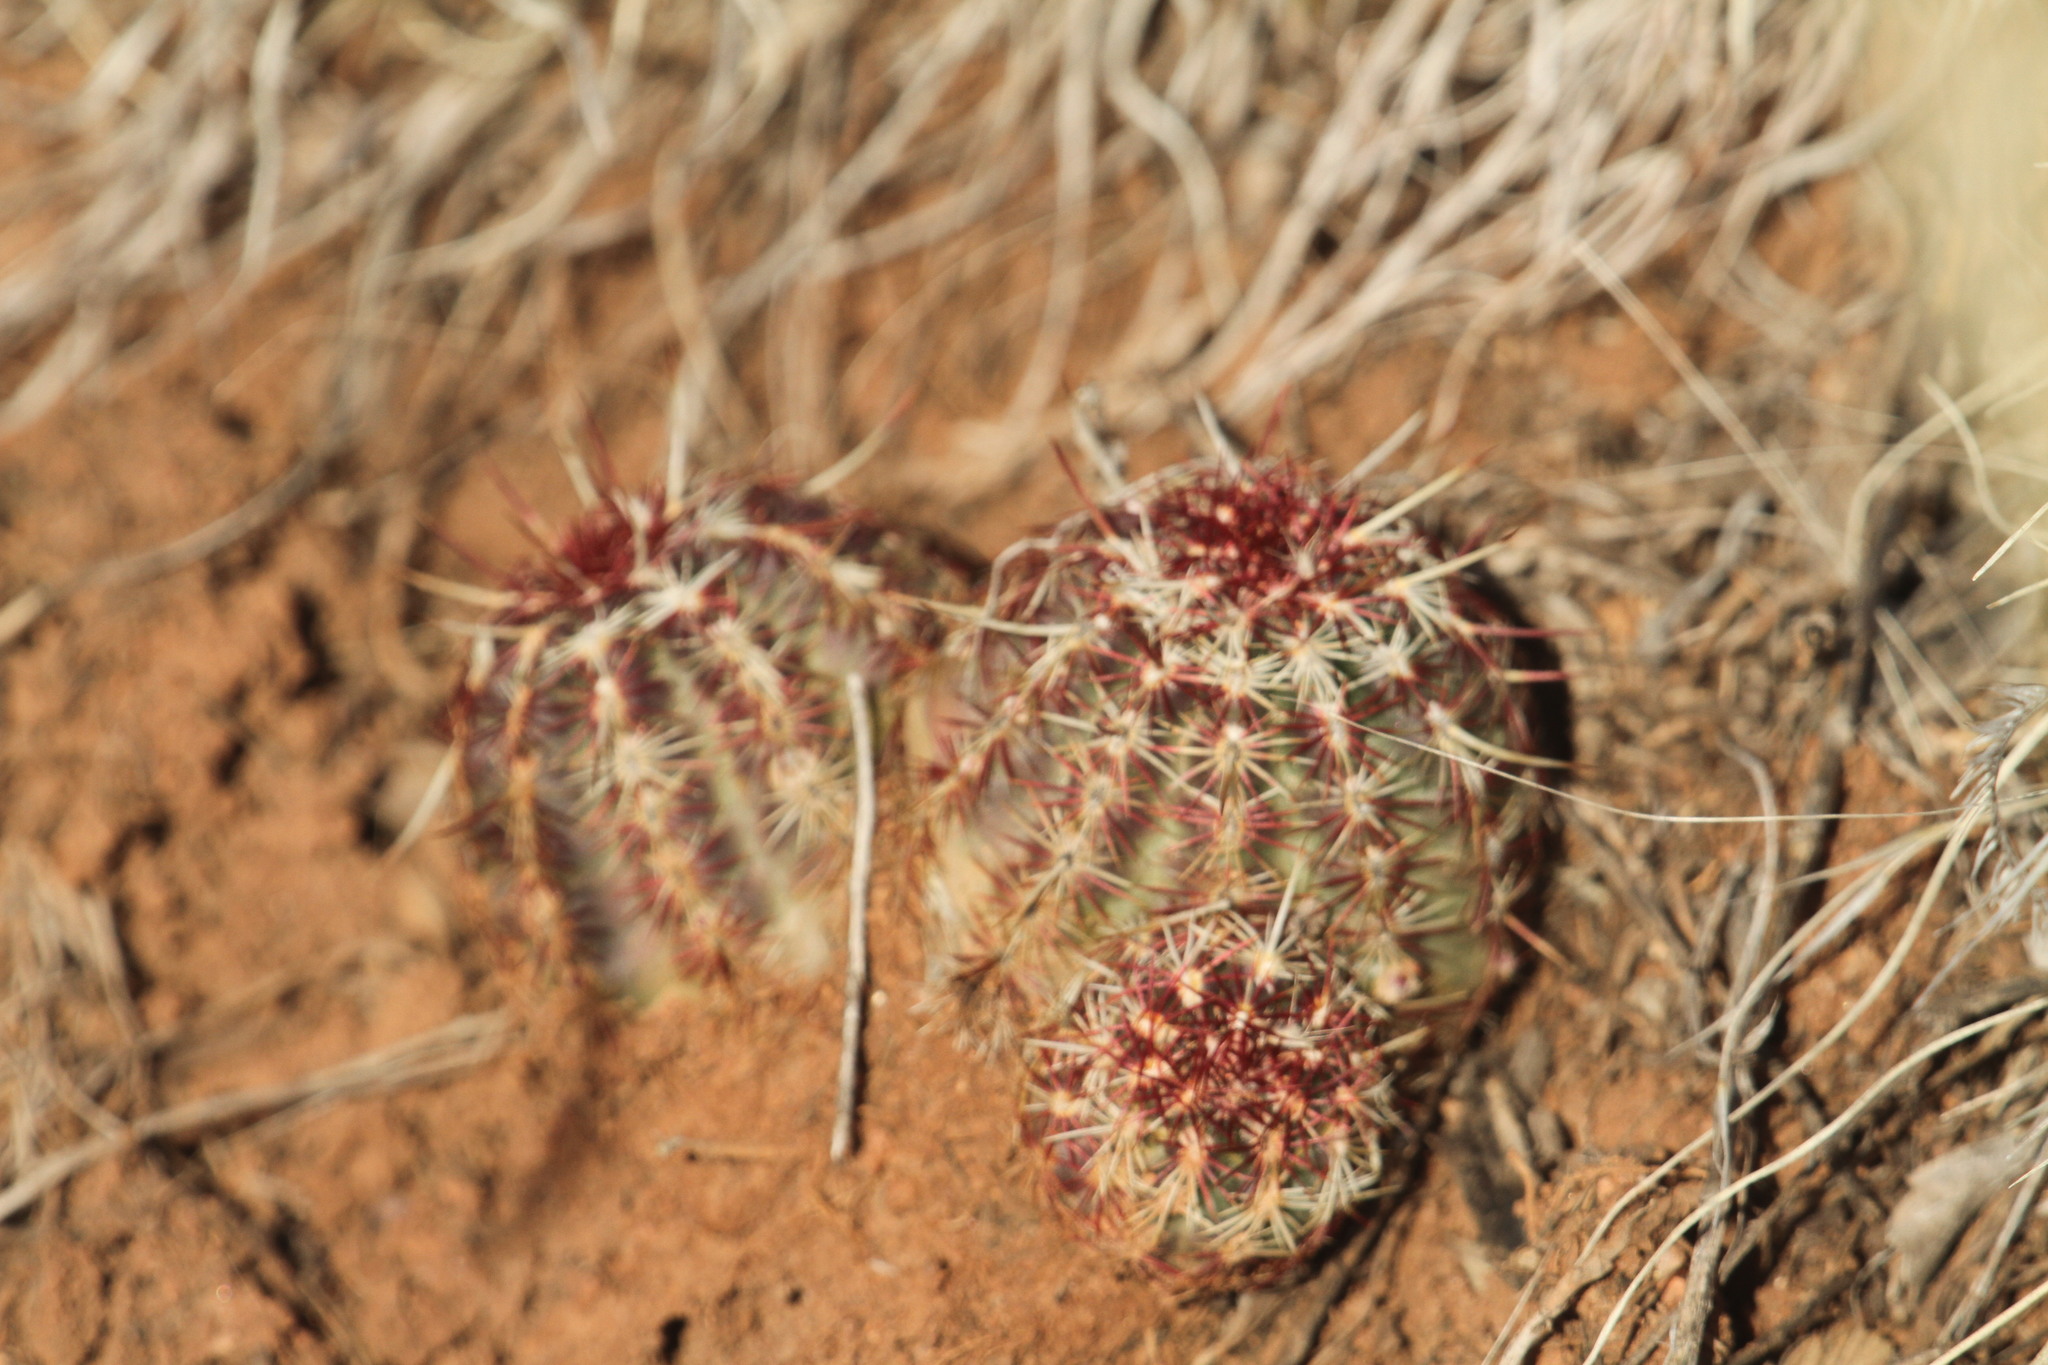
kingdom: Plantae
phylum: Tracheophyta
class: Magnoliopsida
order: Caryophyllales
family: Cactaceae
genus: Echinocereus
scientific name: Echinocereus viridiflorus
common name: Nylon hedgehog cactus
